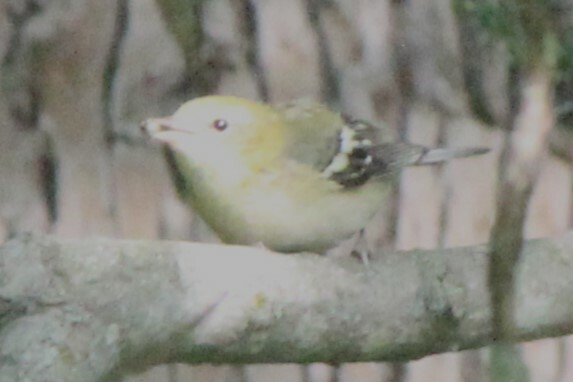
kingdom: Animalia
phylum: Chordata
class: Aves
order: Passeriformes
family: Parulidae
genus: Setophaga
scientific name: Setophaga pensylvanica
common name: Chestnut-sided warbler
